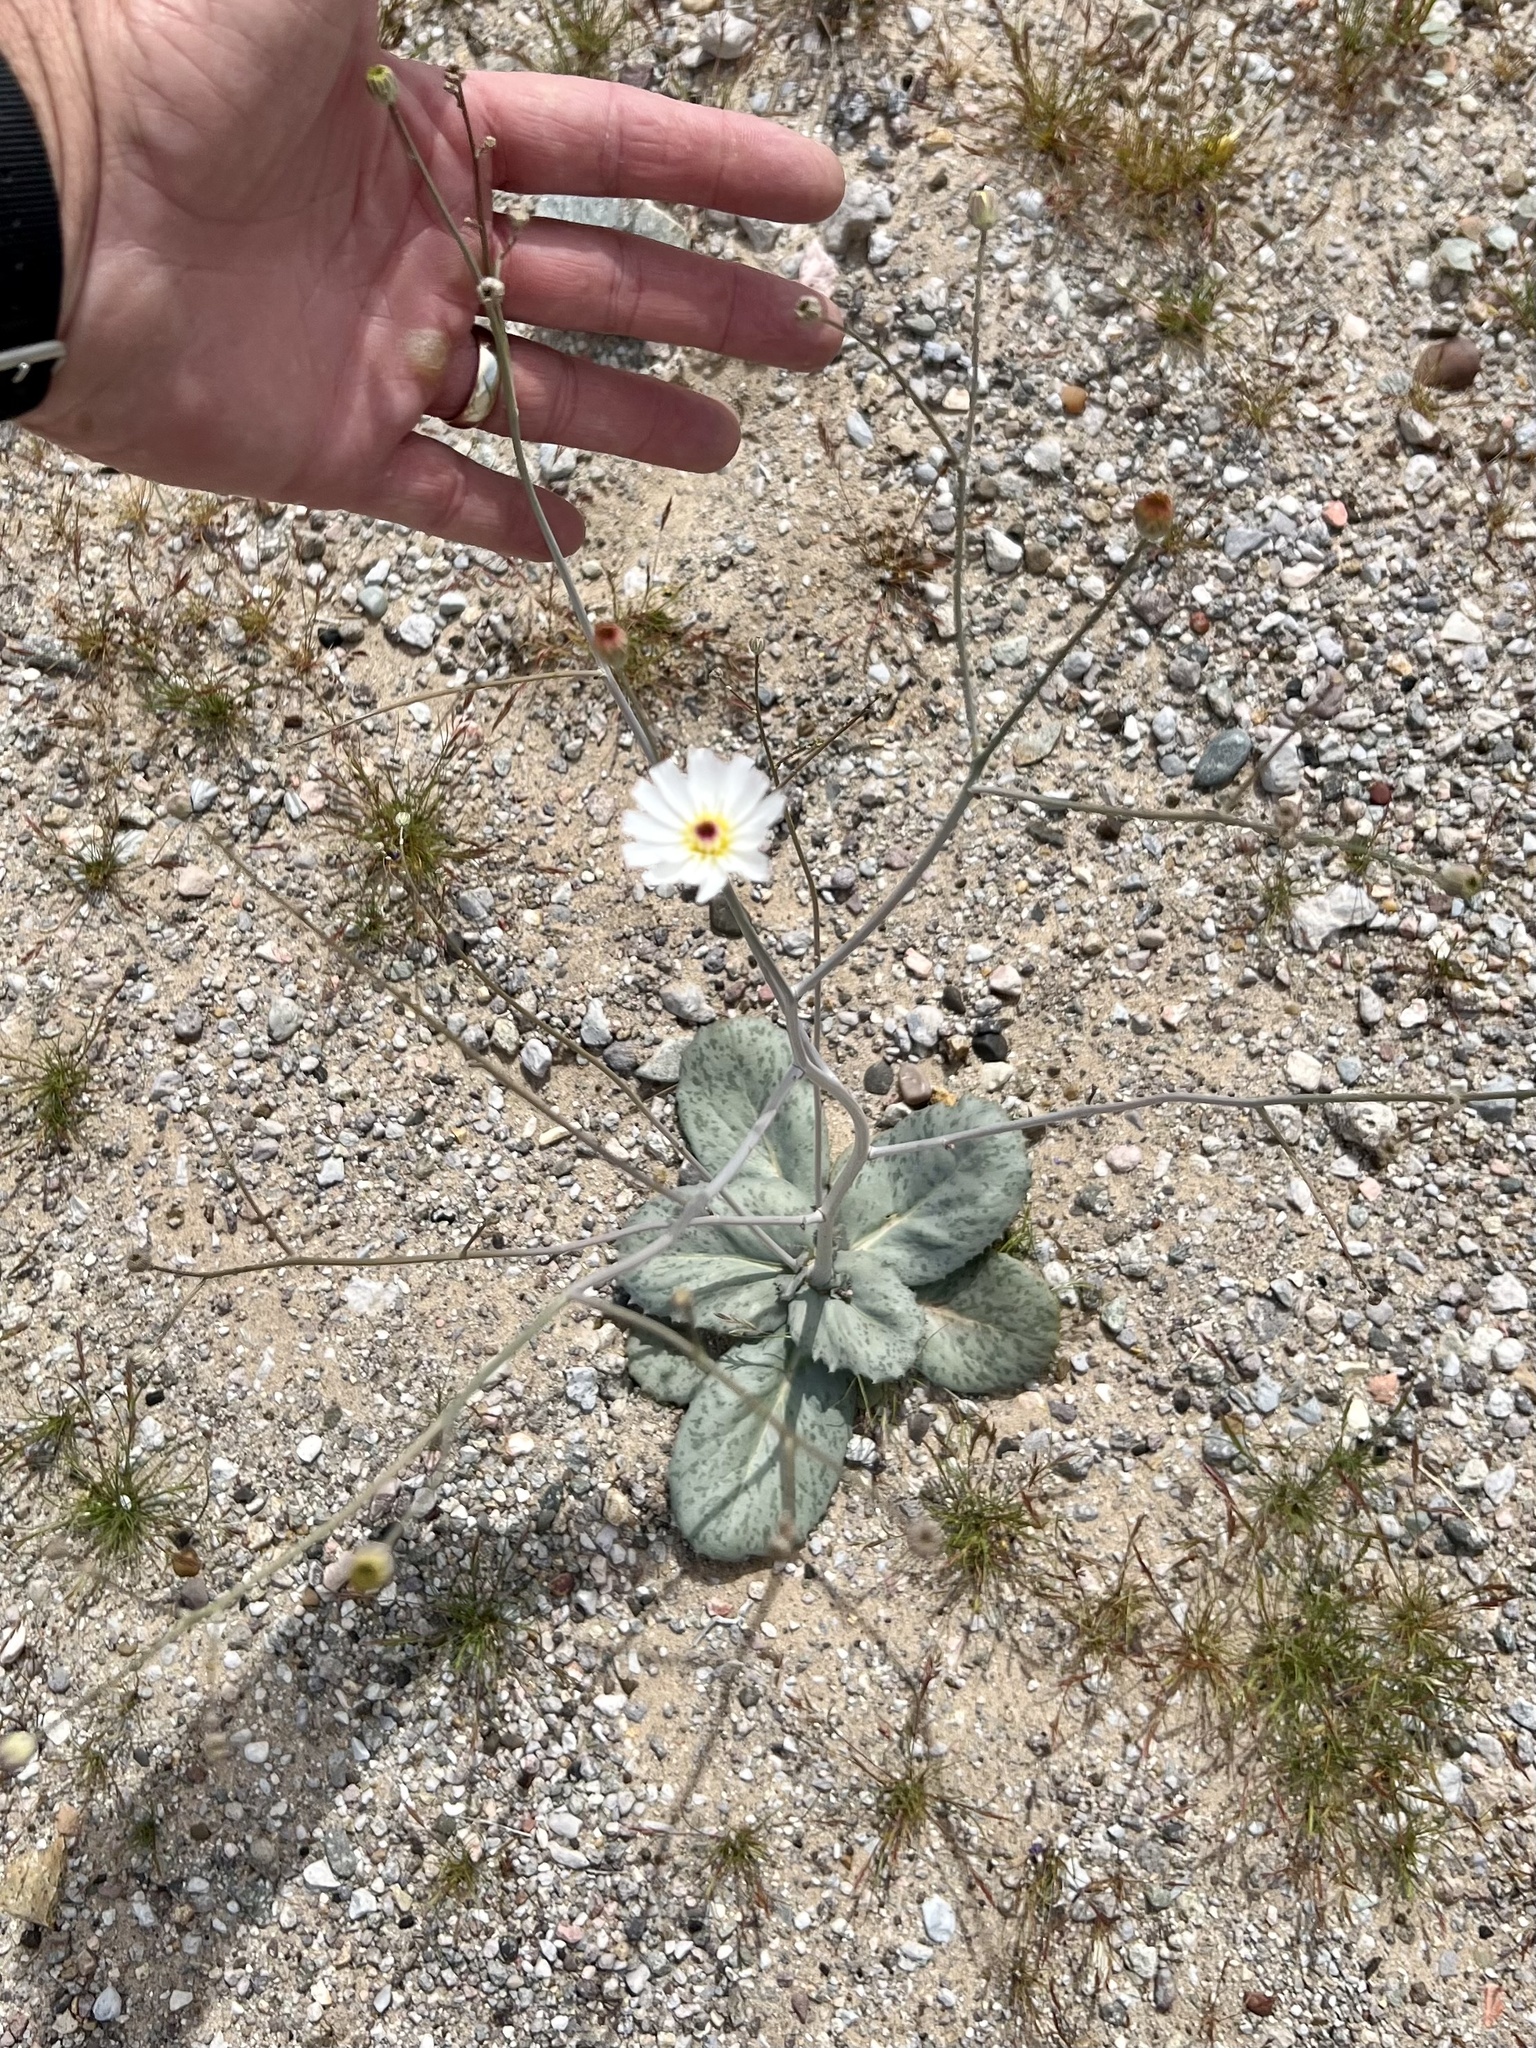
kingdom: Plantae
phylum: Tracheophyta
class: Magnoliopsida
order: Asterales
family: Asteraceae
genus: Atrichoseris
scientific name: Atrichoseris platyphylla
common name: Tobaccoweed
